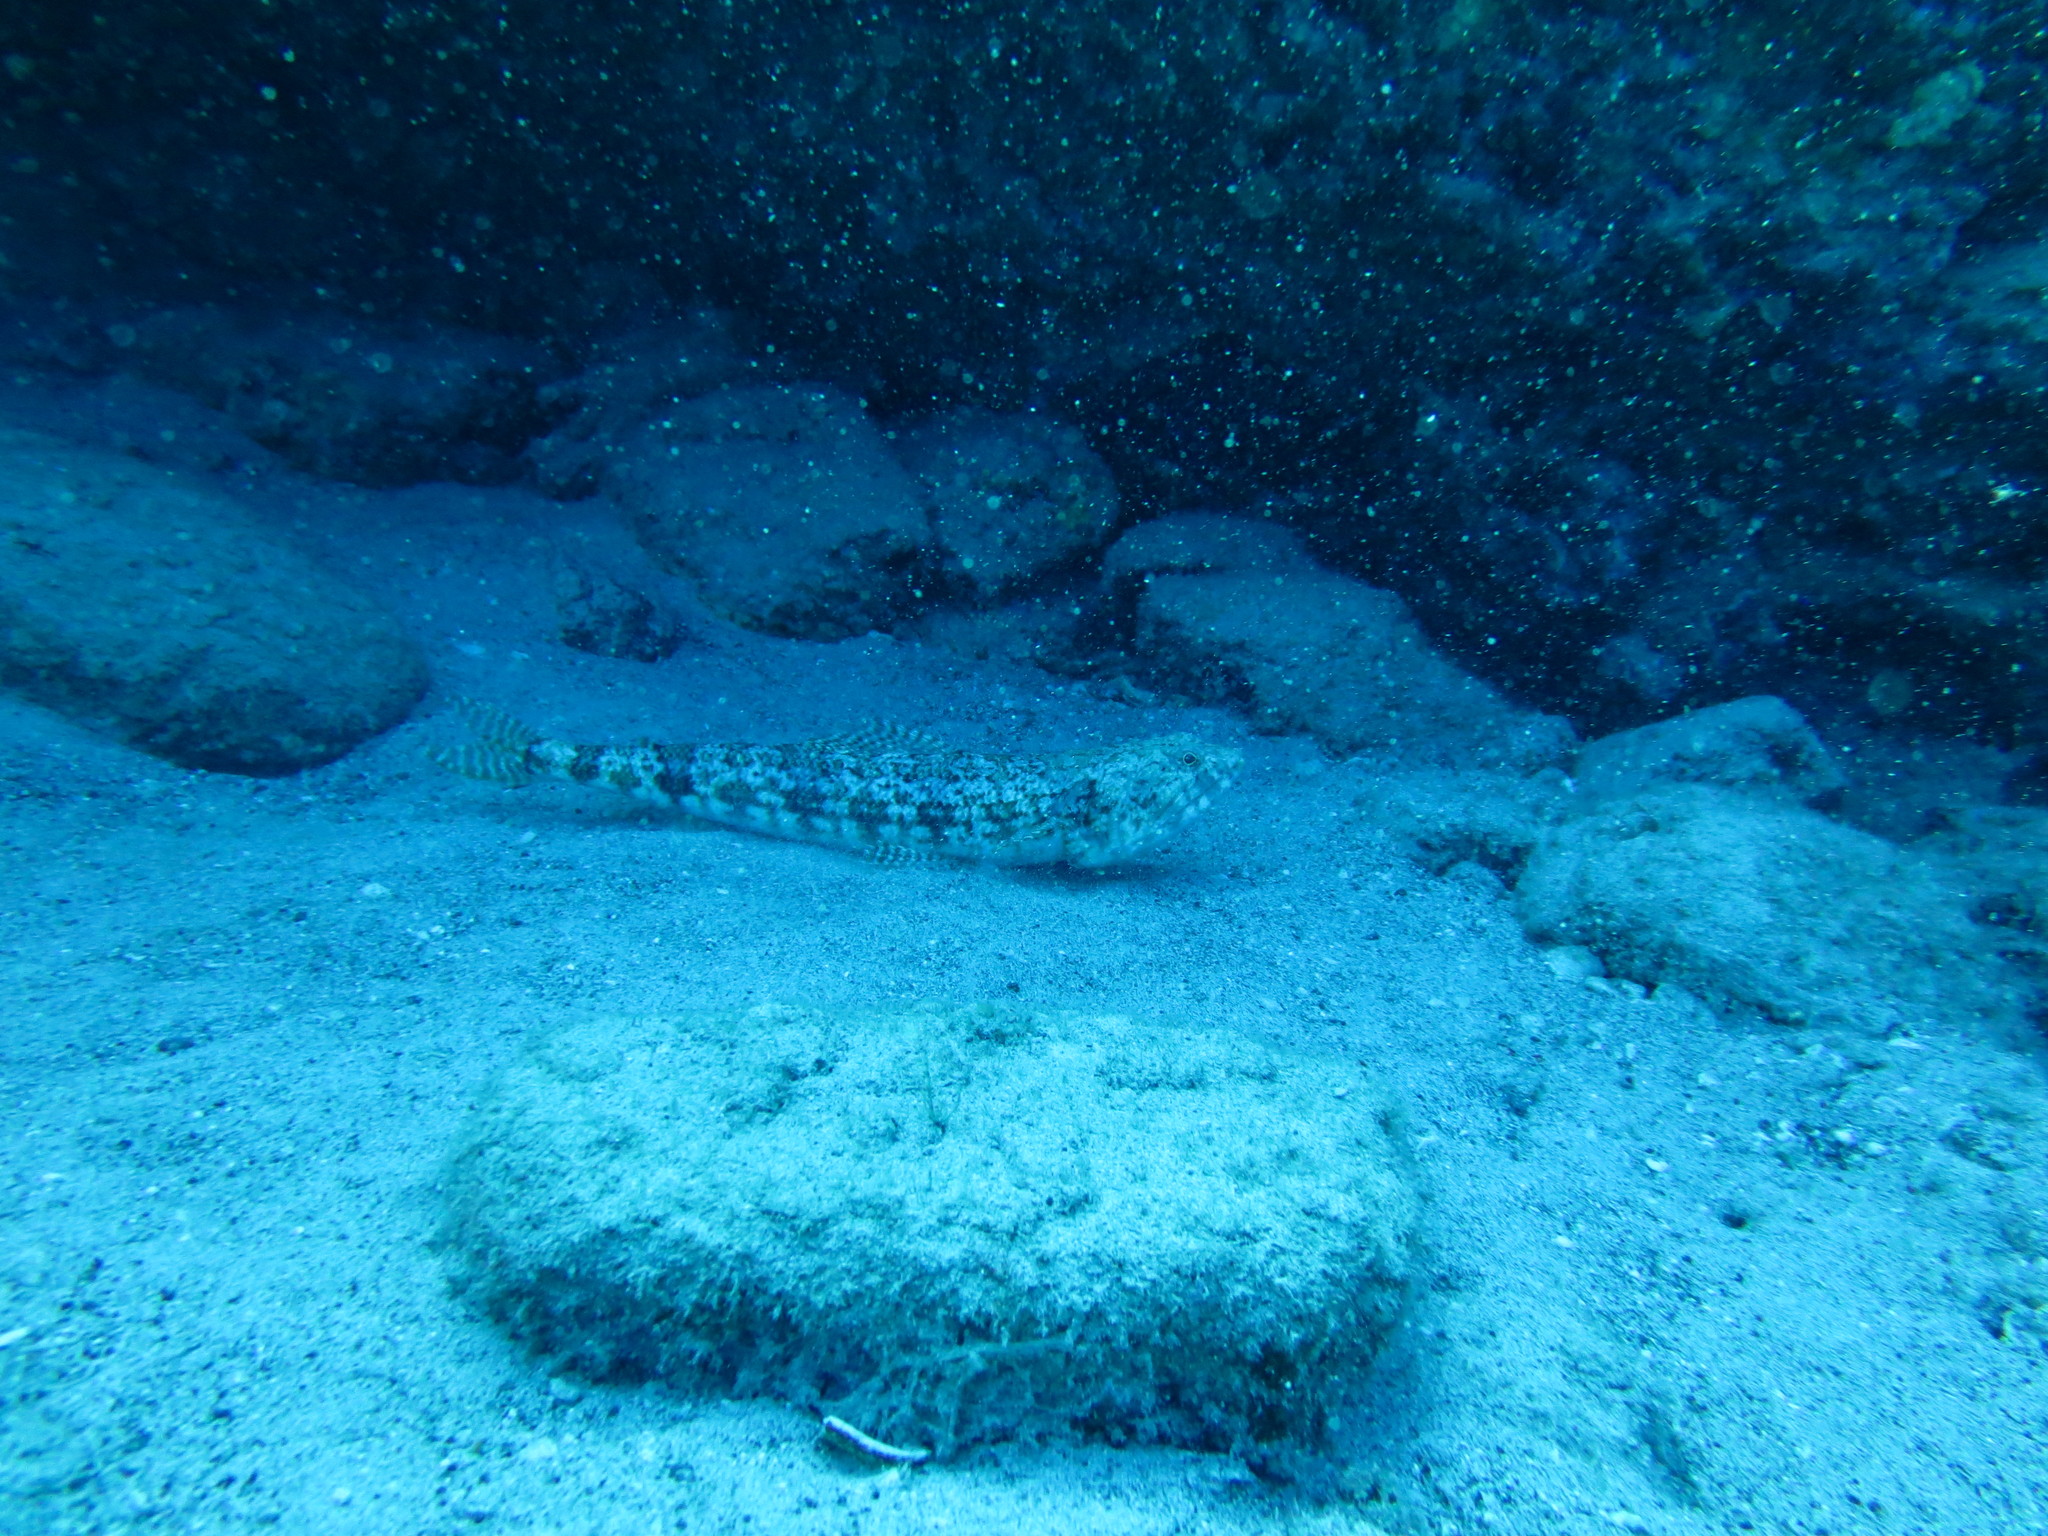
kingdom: Animalia
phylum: Chordata
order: Aulopiformes
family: Synodontidae
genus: Synodus
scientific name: Synodus ulae
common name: Five-band lizardfish
